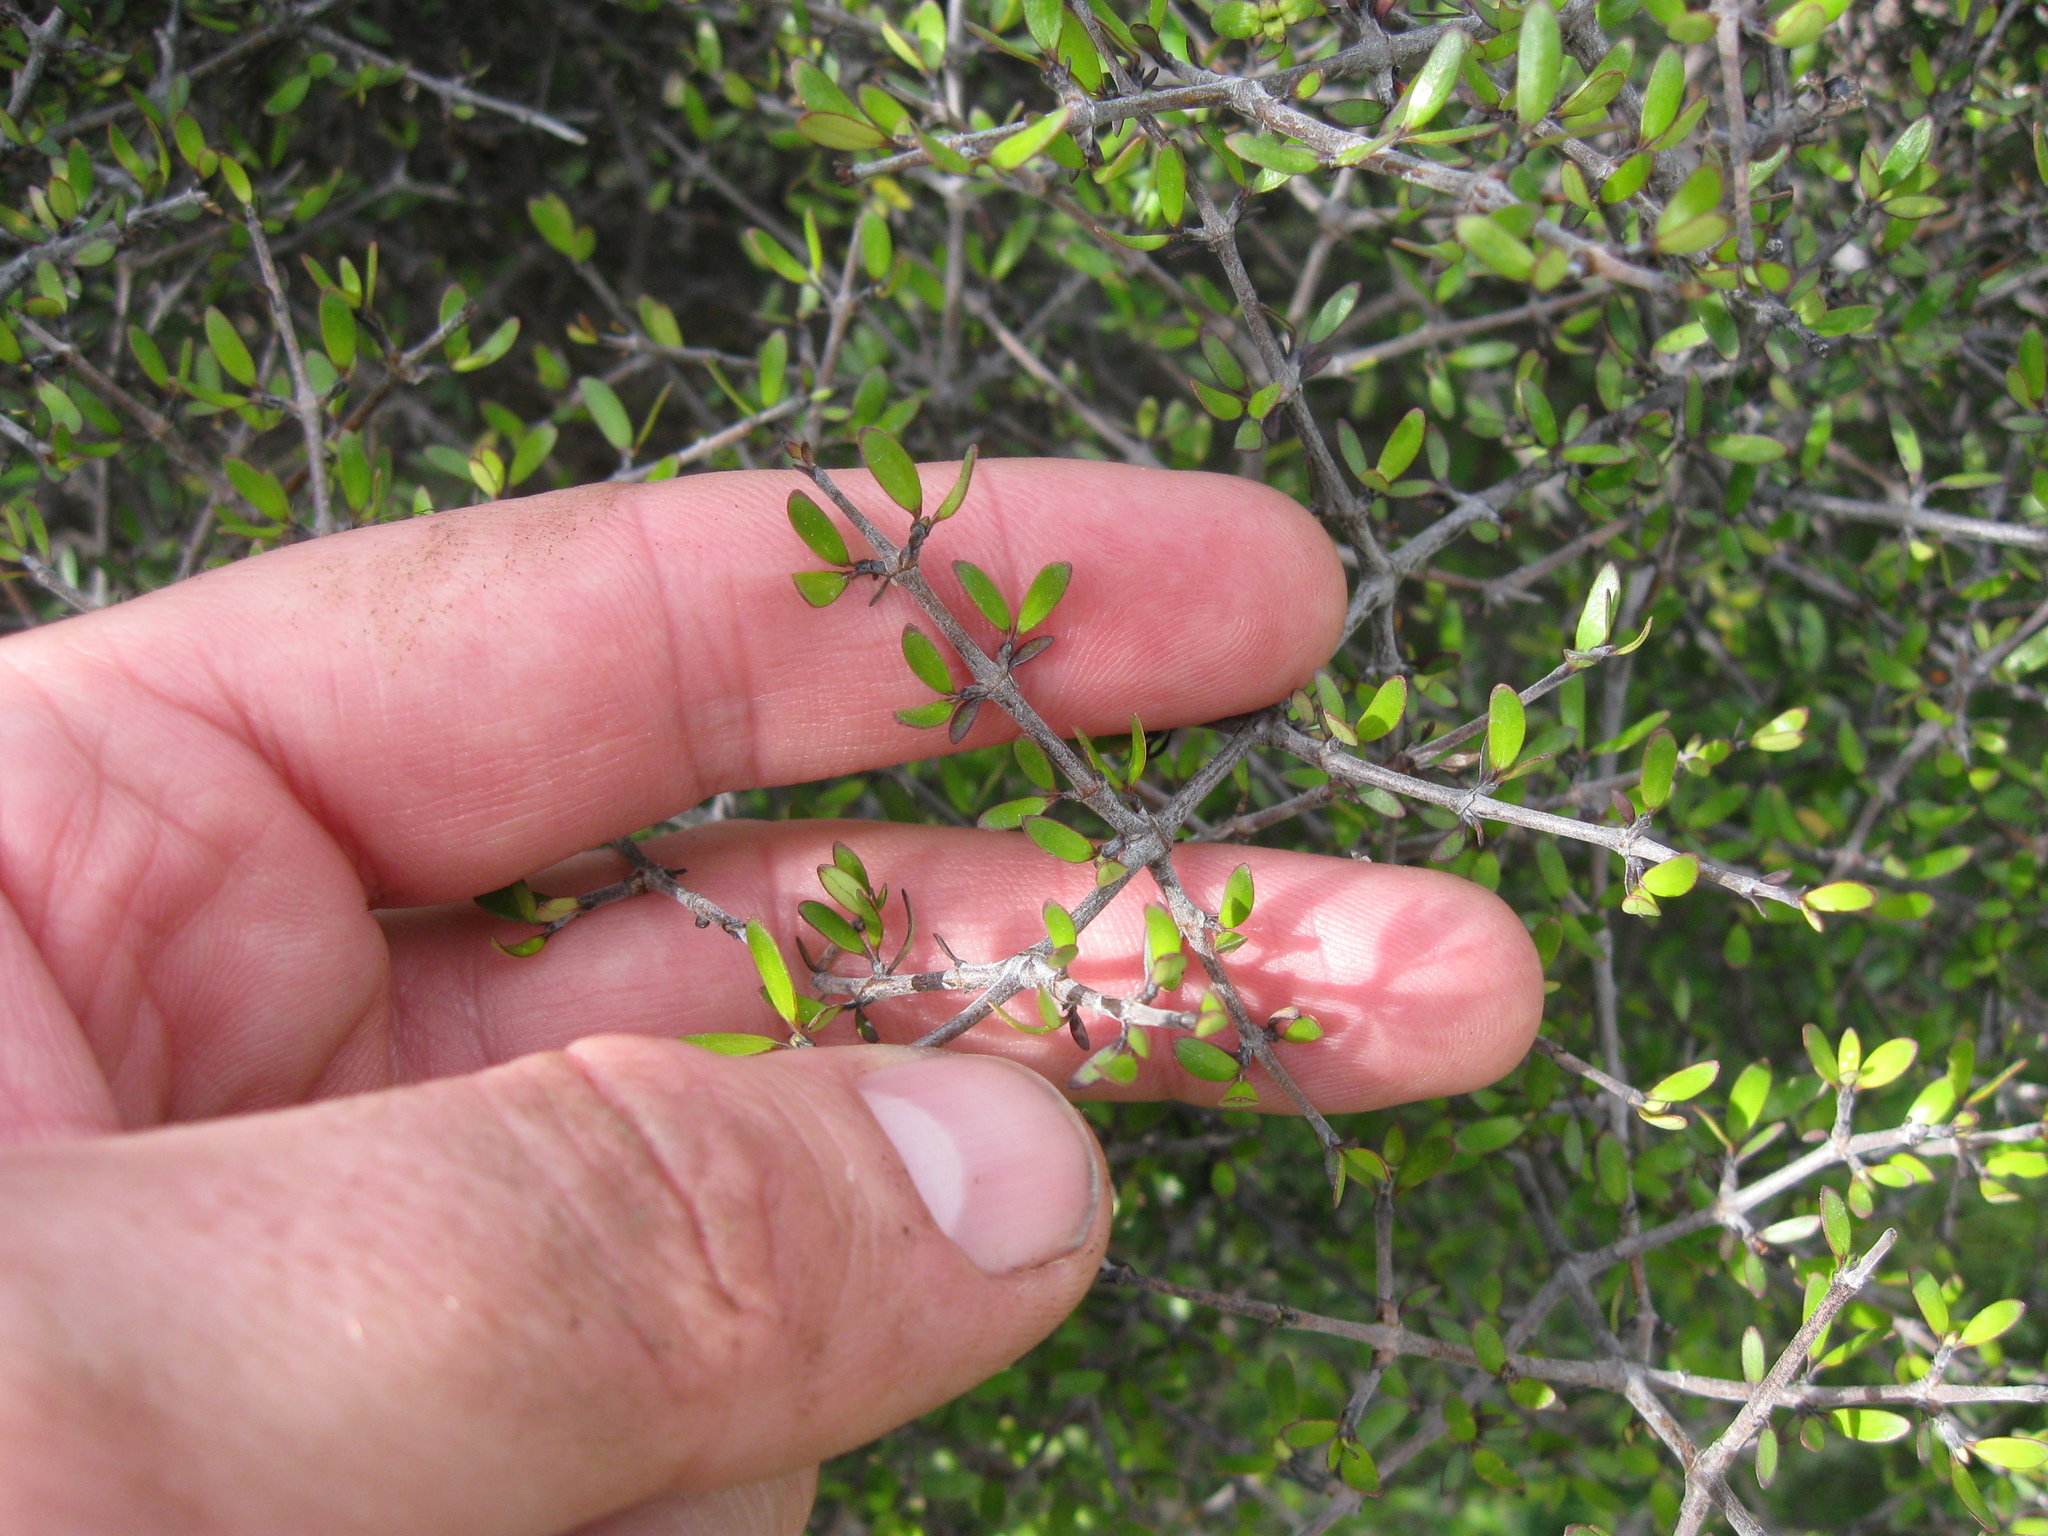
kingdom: Plantae
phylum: Tracheophyta
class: Magnoliopsida
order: Gentianales
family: Rubiaceae
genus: Coprosma
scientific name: Coprosma propinqua
